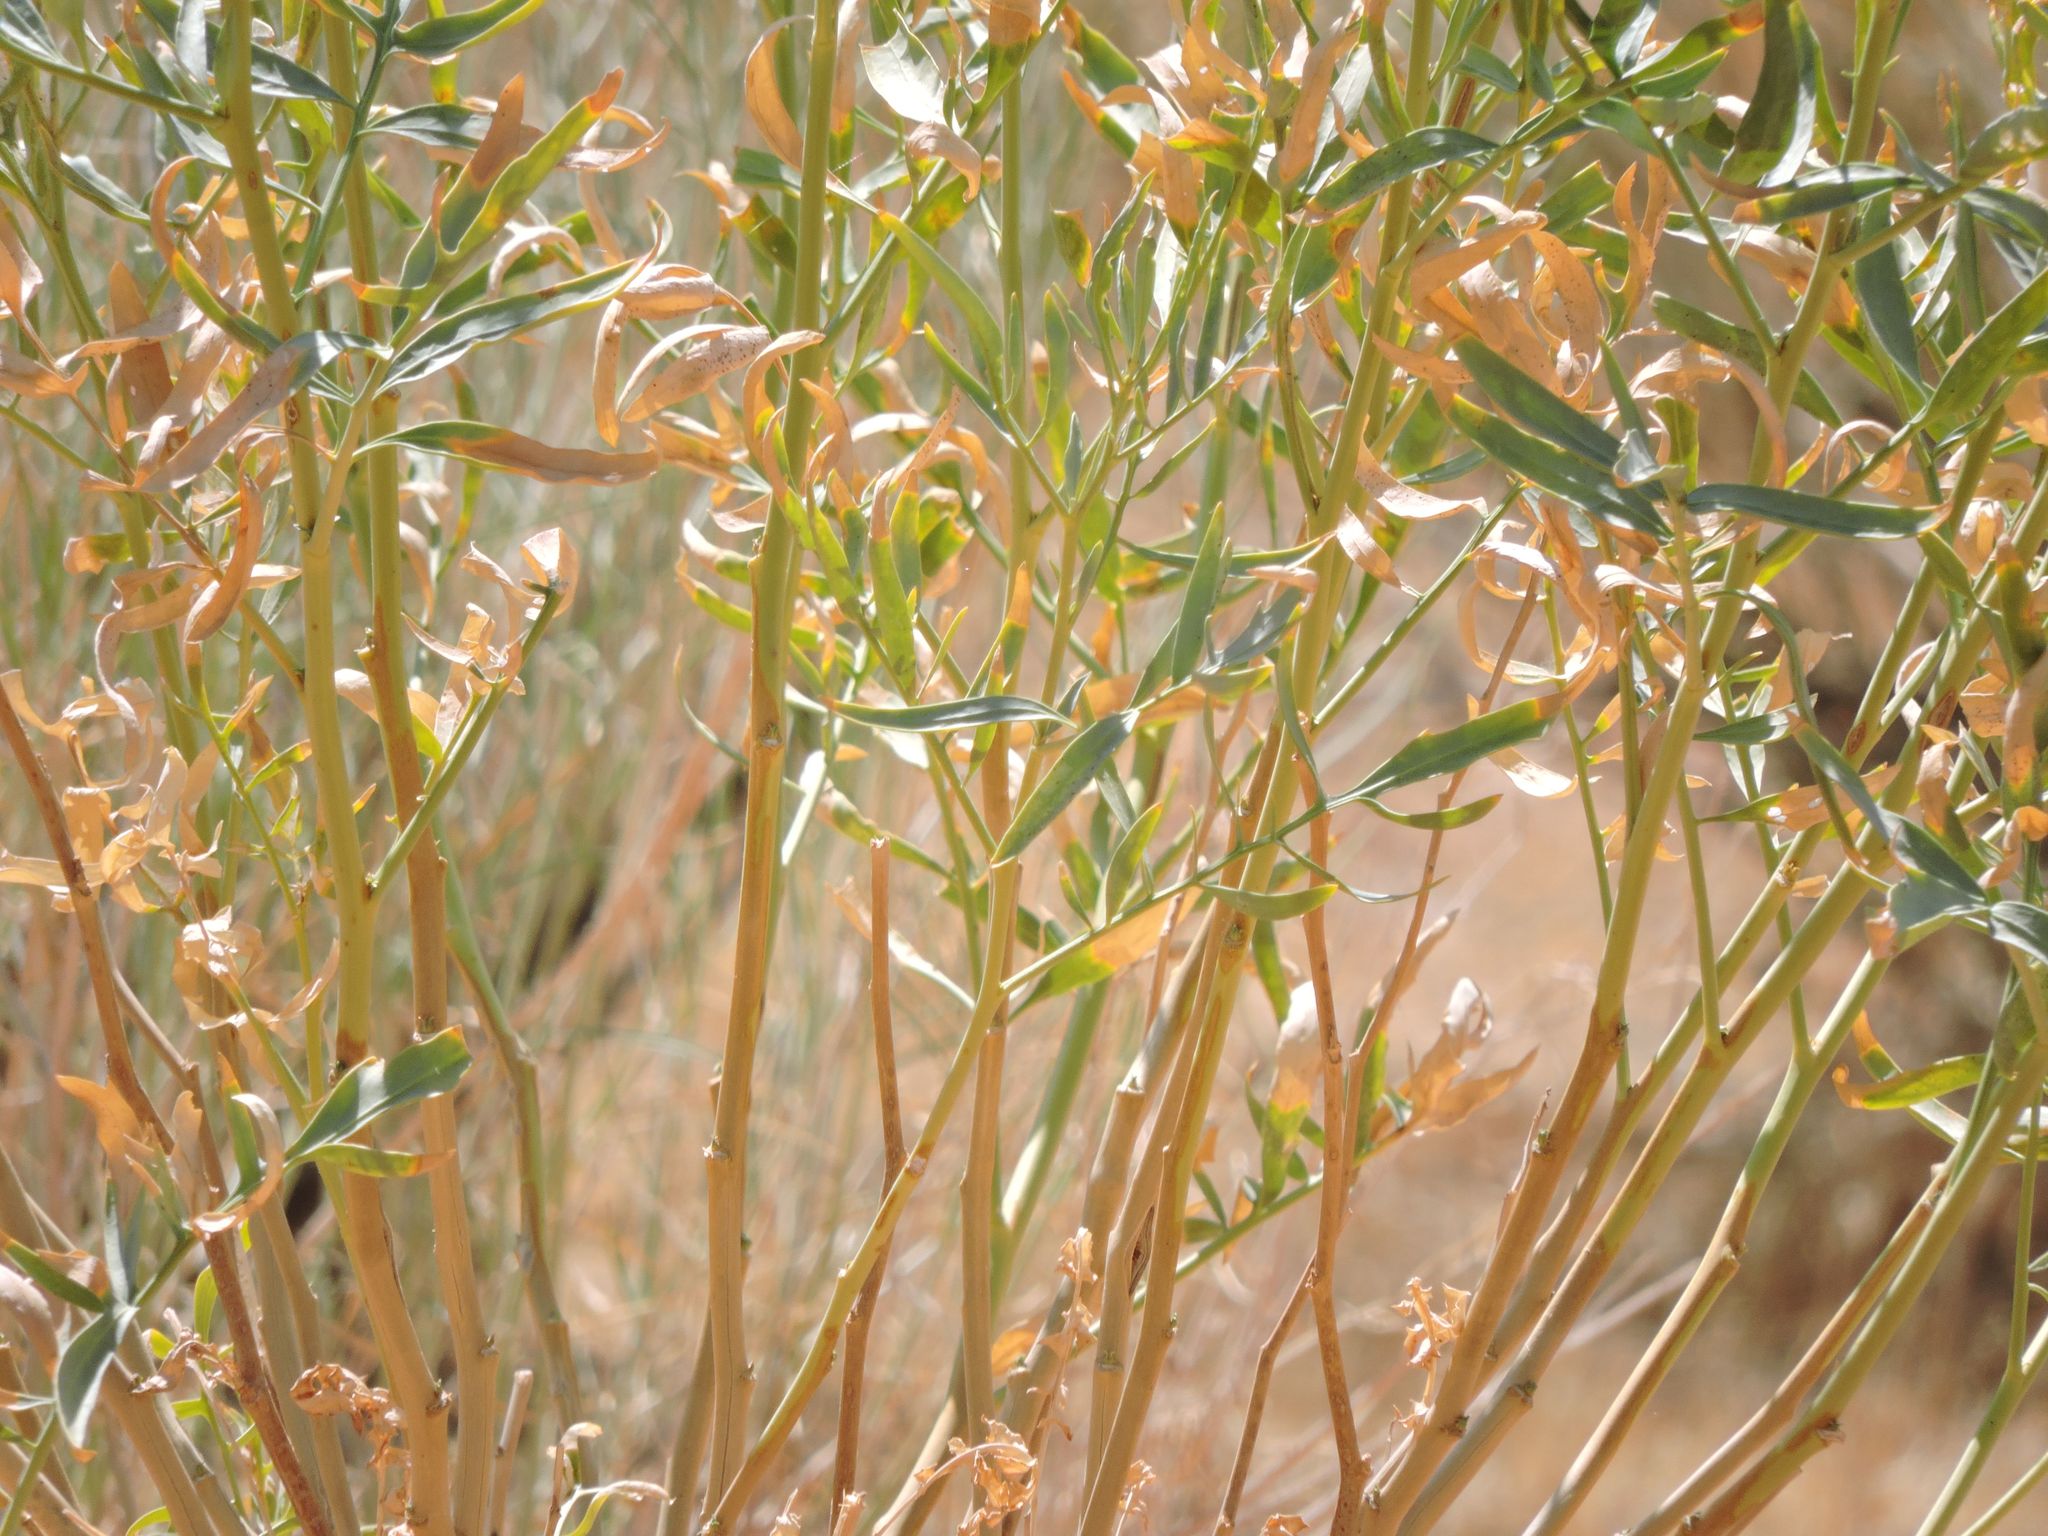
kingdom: Plantae
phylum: Tracheophyta
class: Magnoliopsida
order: Brassicales
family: Brassicaceae
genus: Stanleya
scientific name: Stanleya pinnata
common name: Prince's-plume
